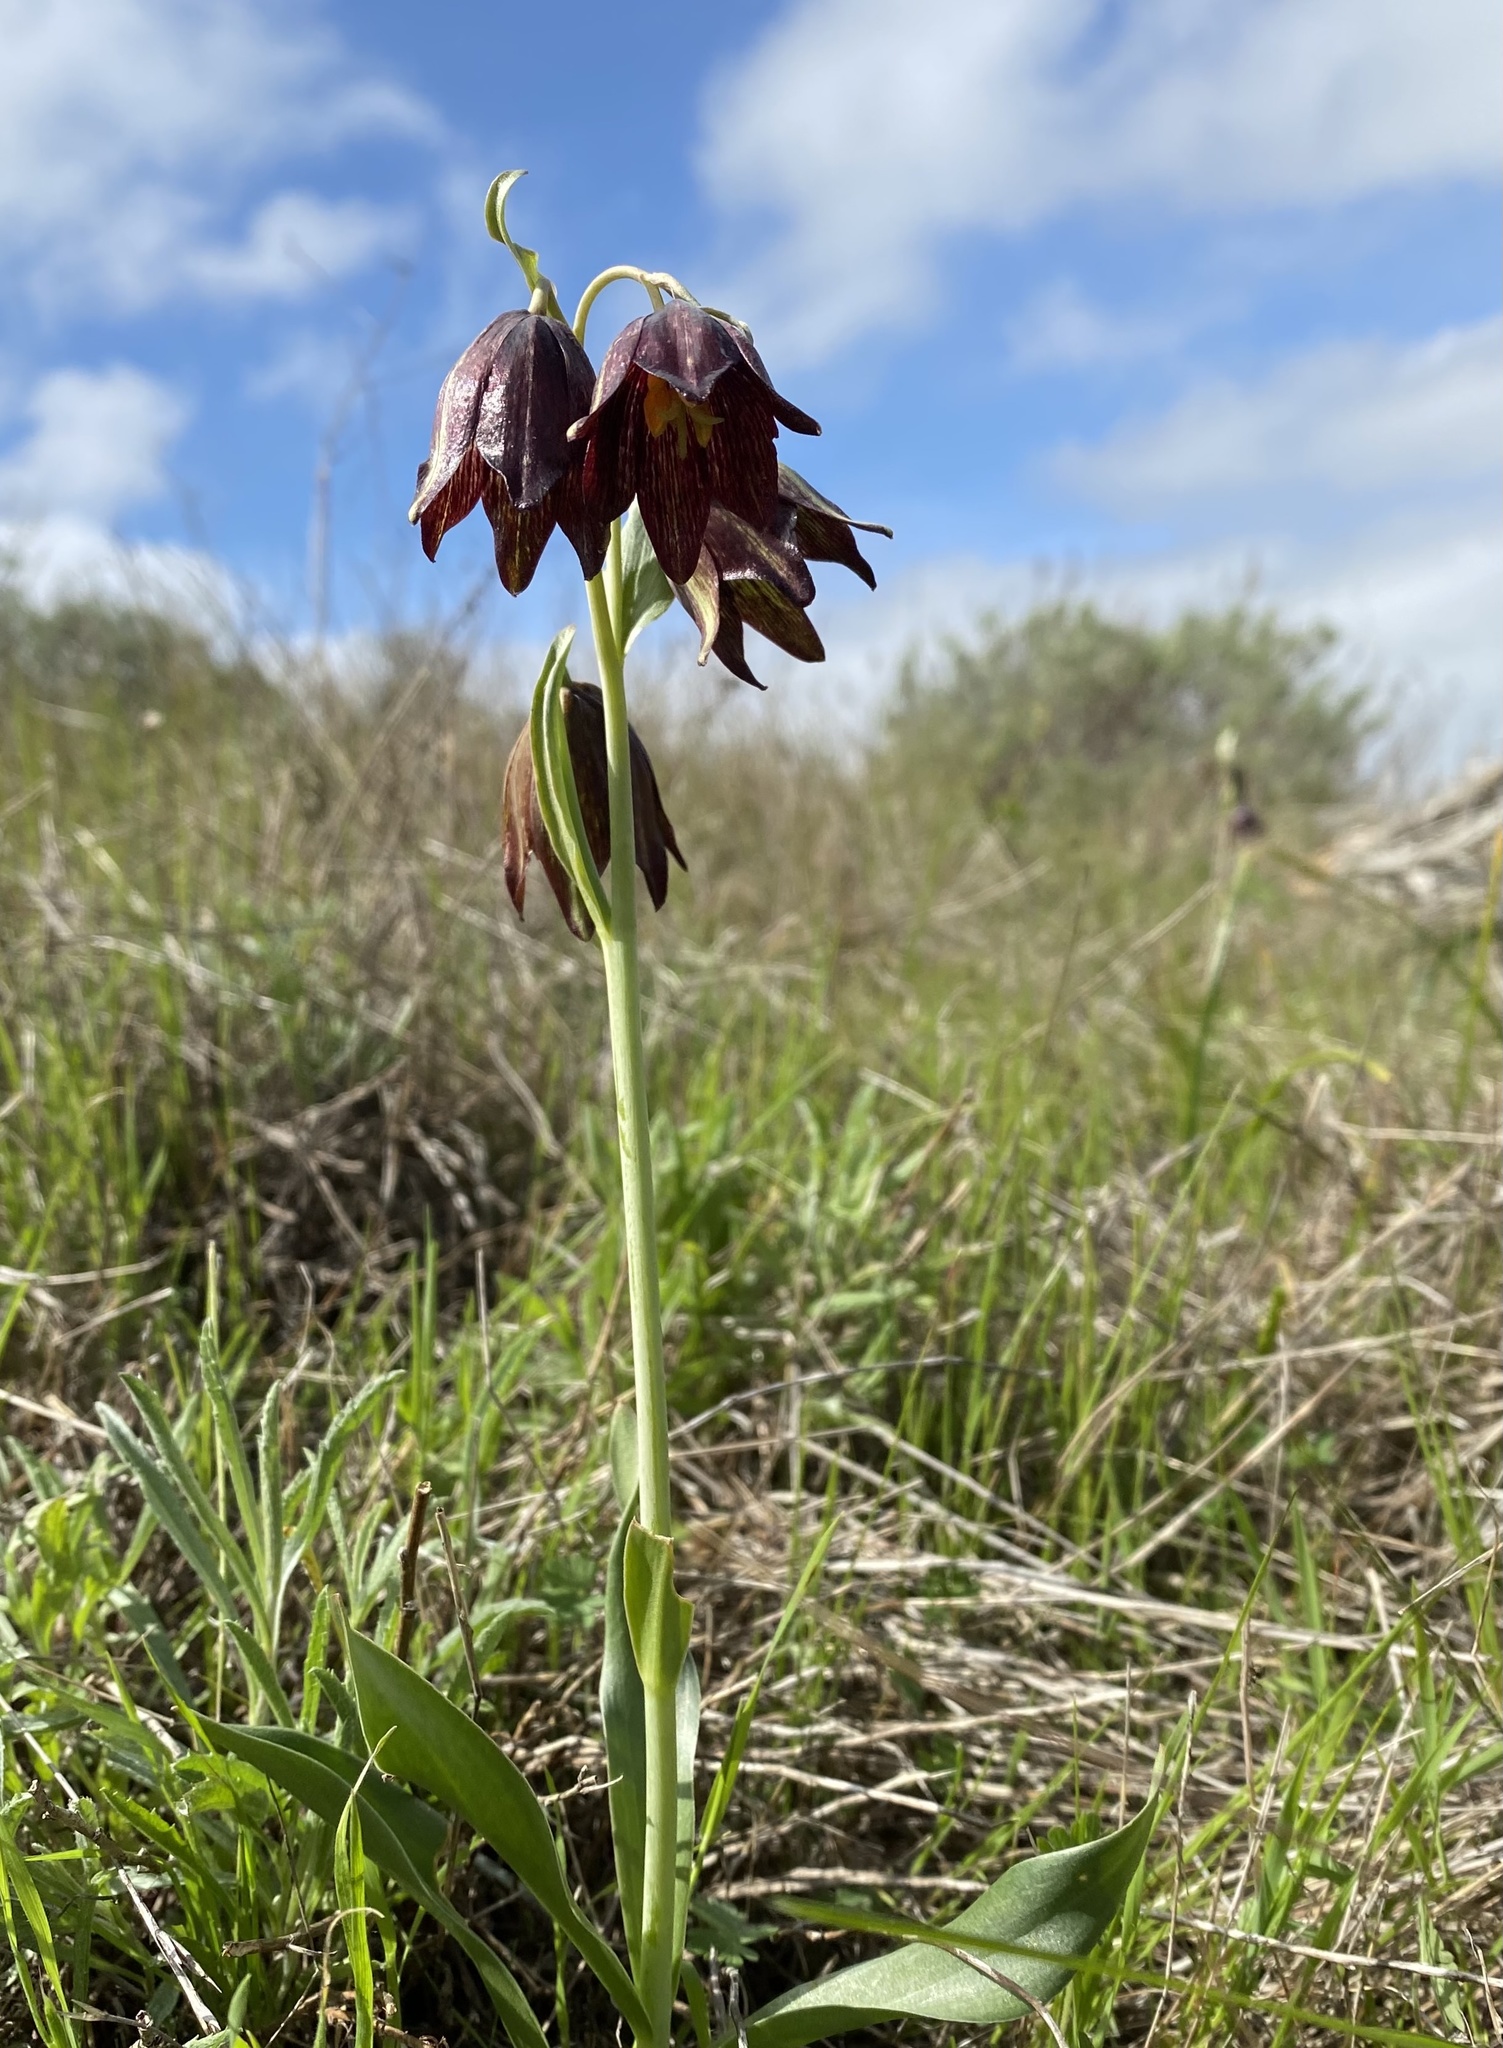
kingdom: Plantae
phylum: Tracheophyta
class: Liliopsida
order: Liliales
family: Liliaceae
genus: Fritillaria
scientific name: Fritillaria biflora
